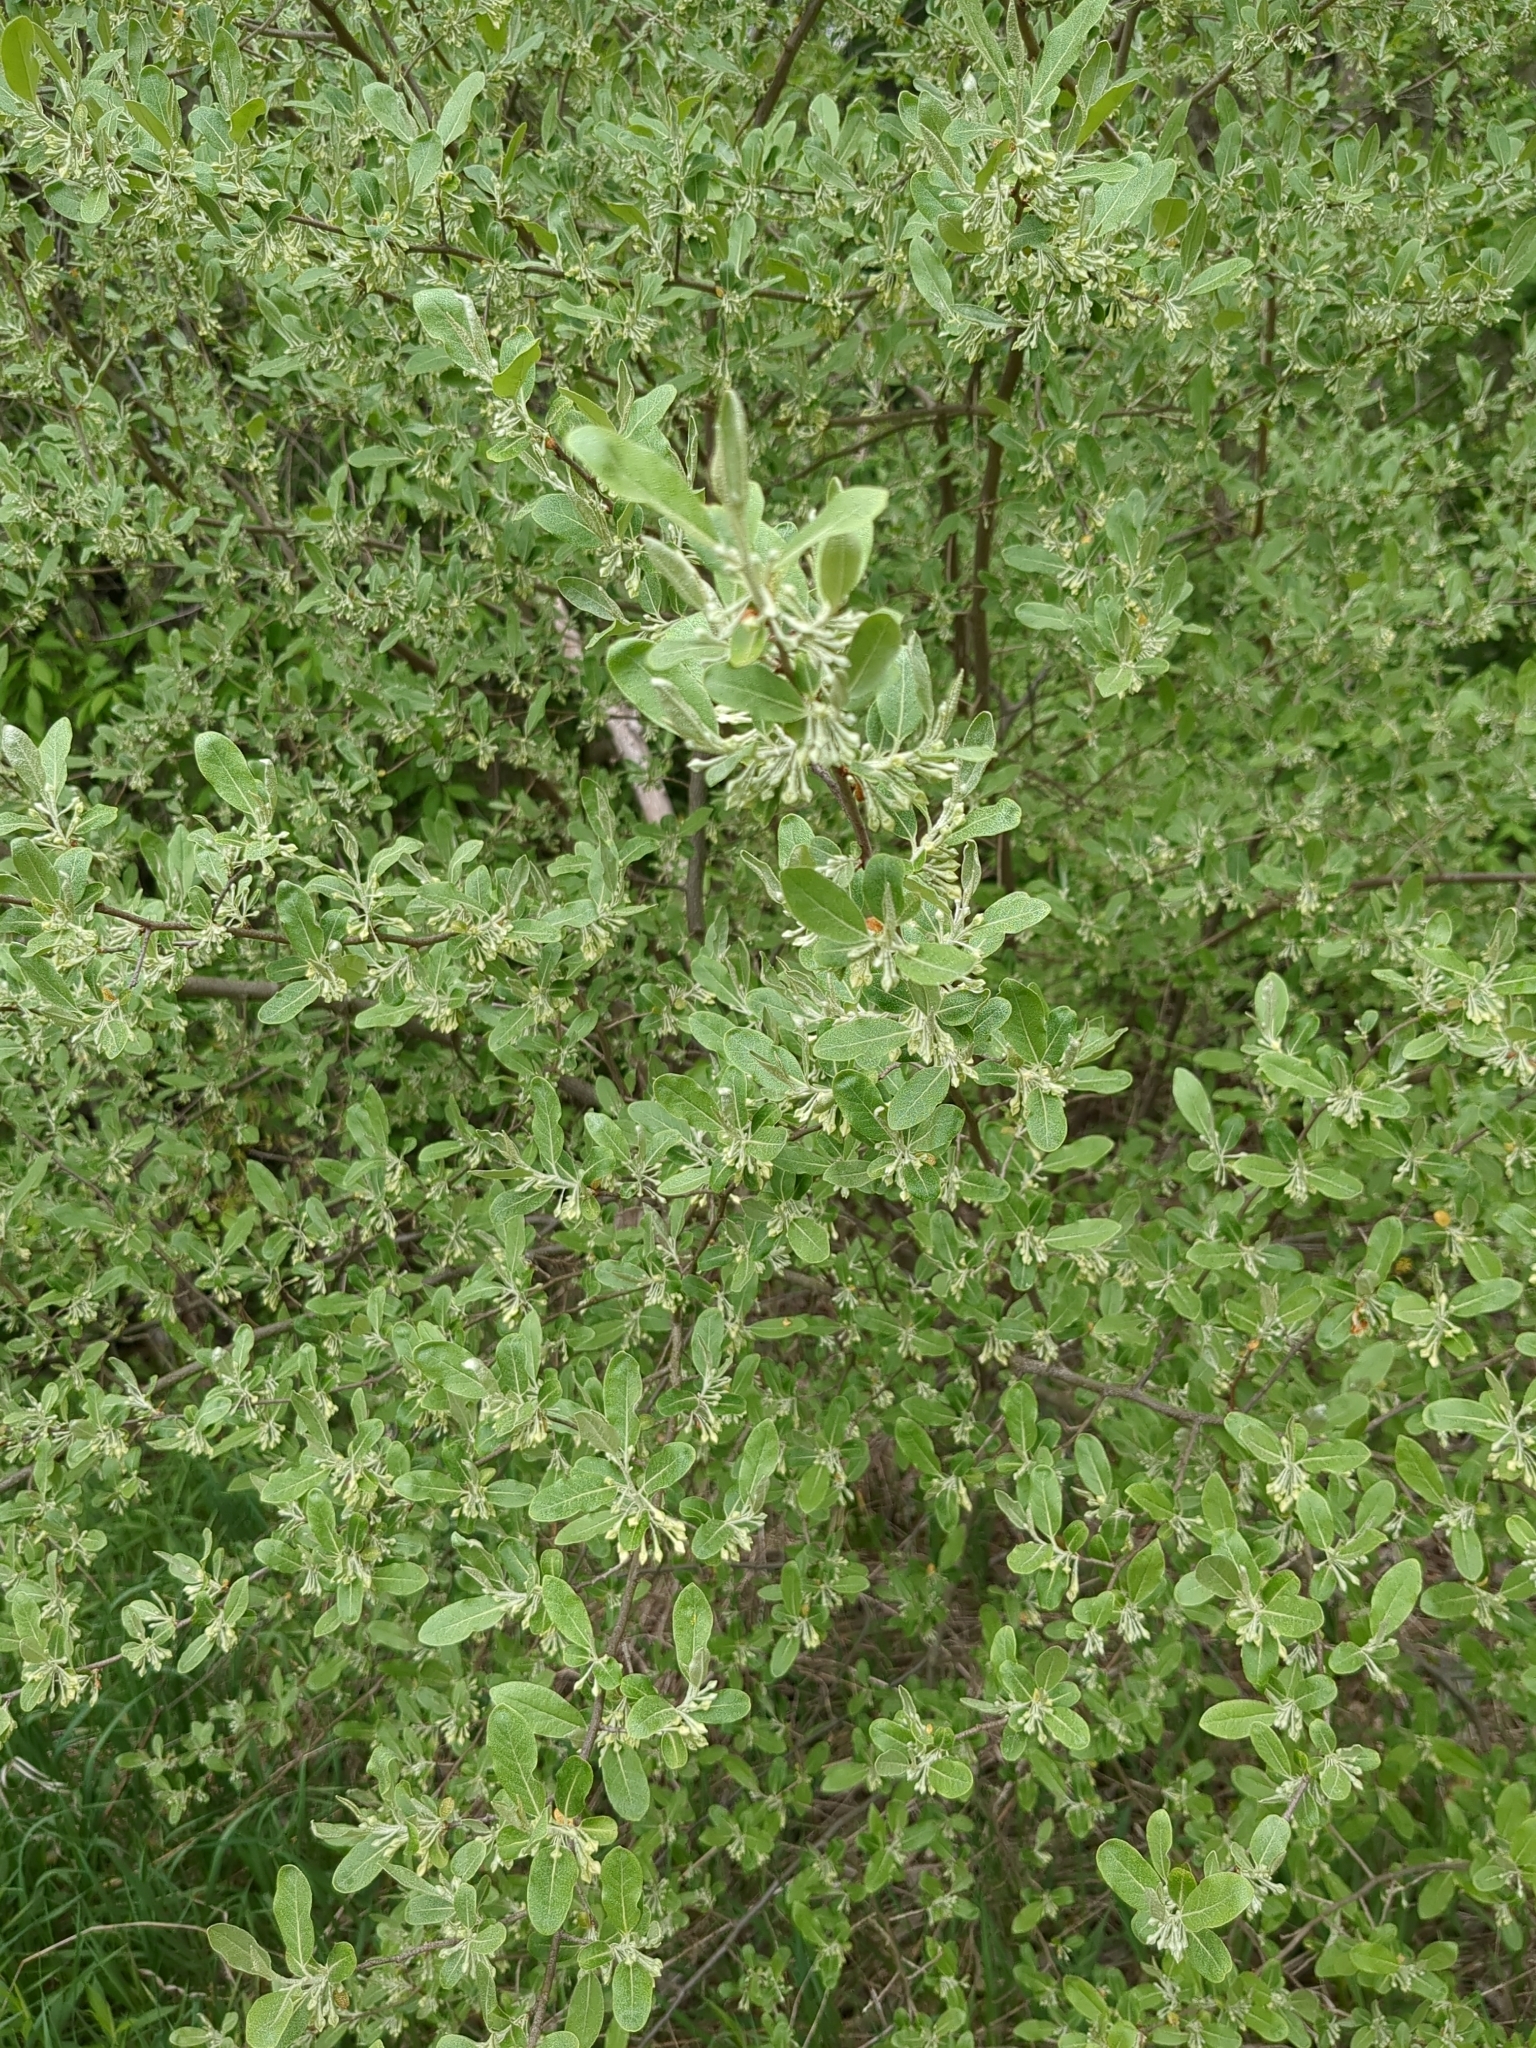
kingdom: Plantae
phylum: Tracheophyta
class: Magnoliopsida
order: Rosales
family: Elaeagnaceae
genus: Elaeagnus
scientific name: Elaeagnus umbellata
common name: Autumn olive
